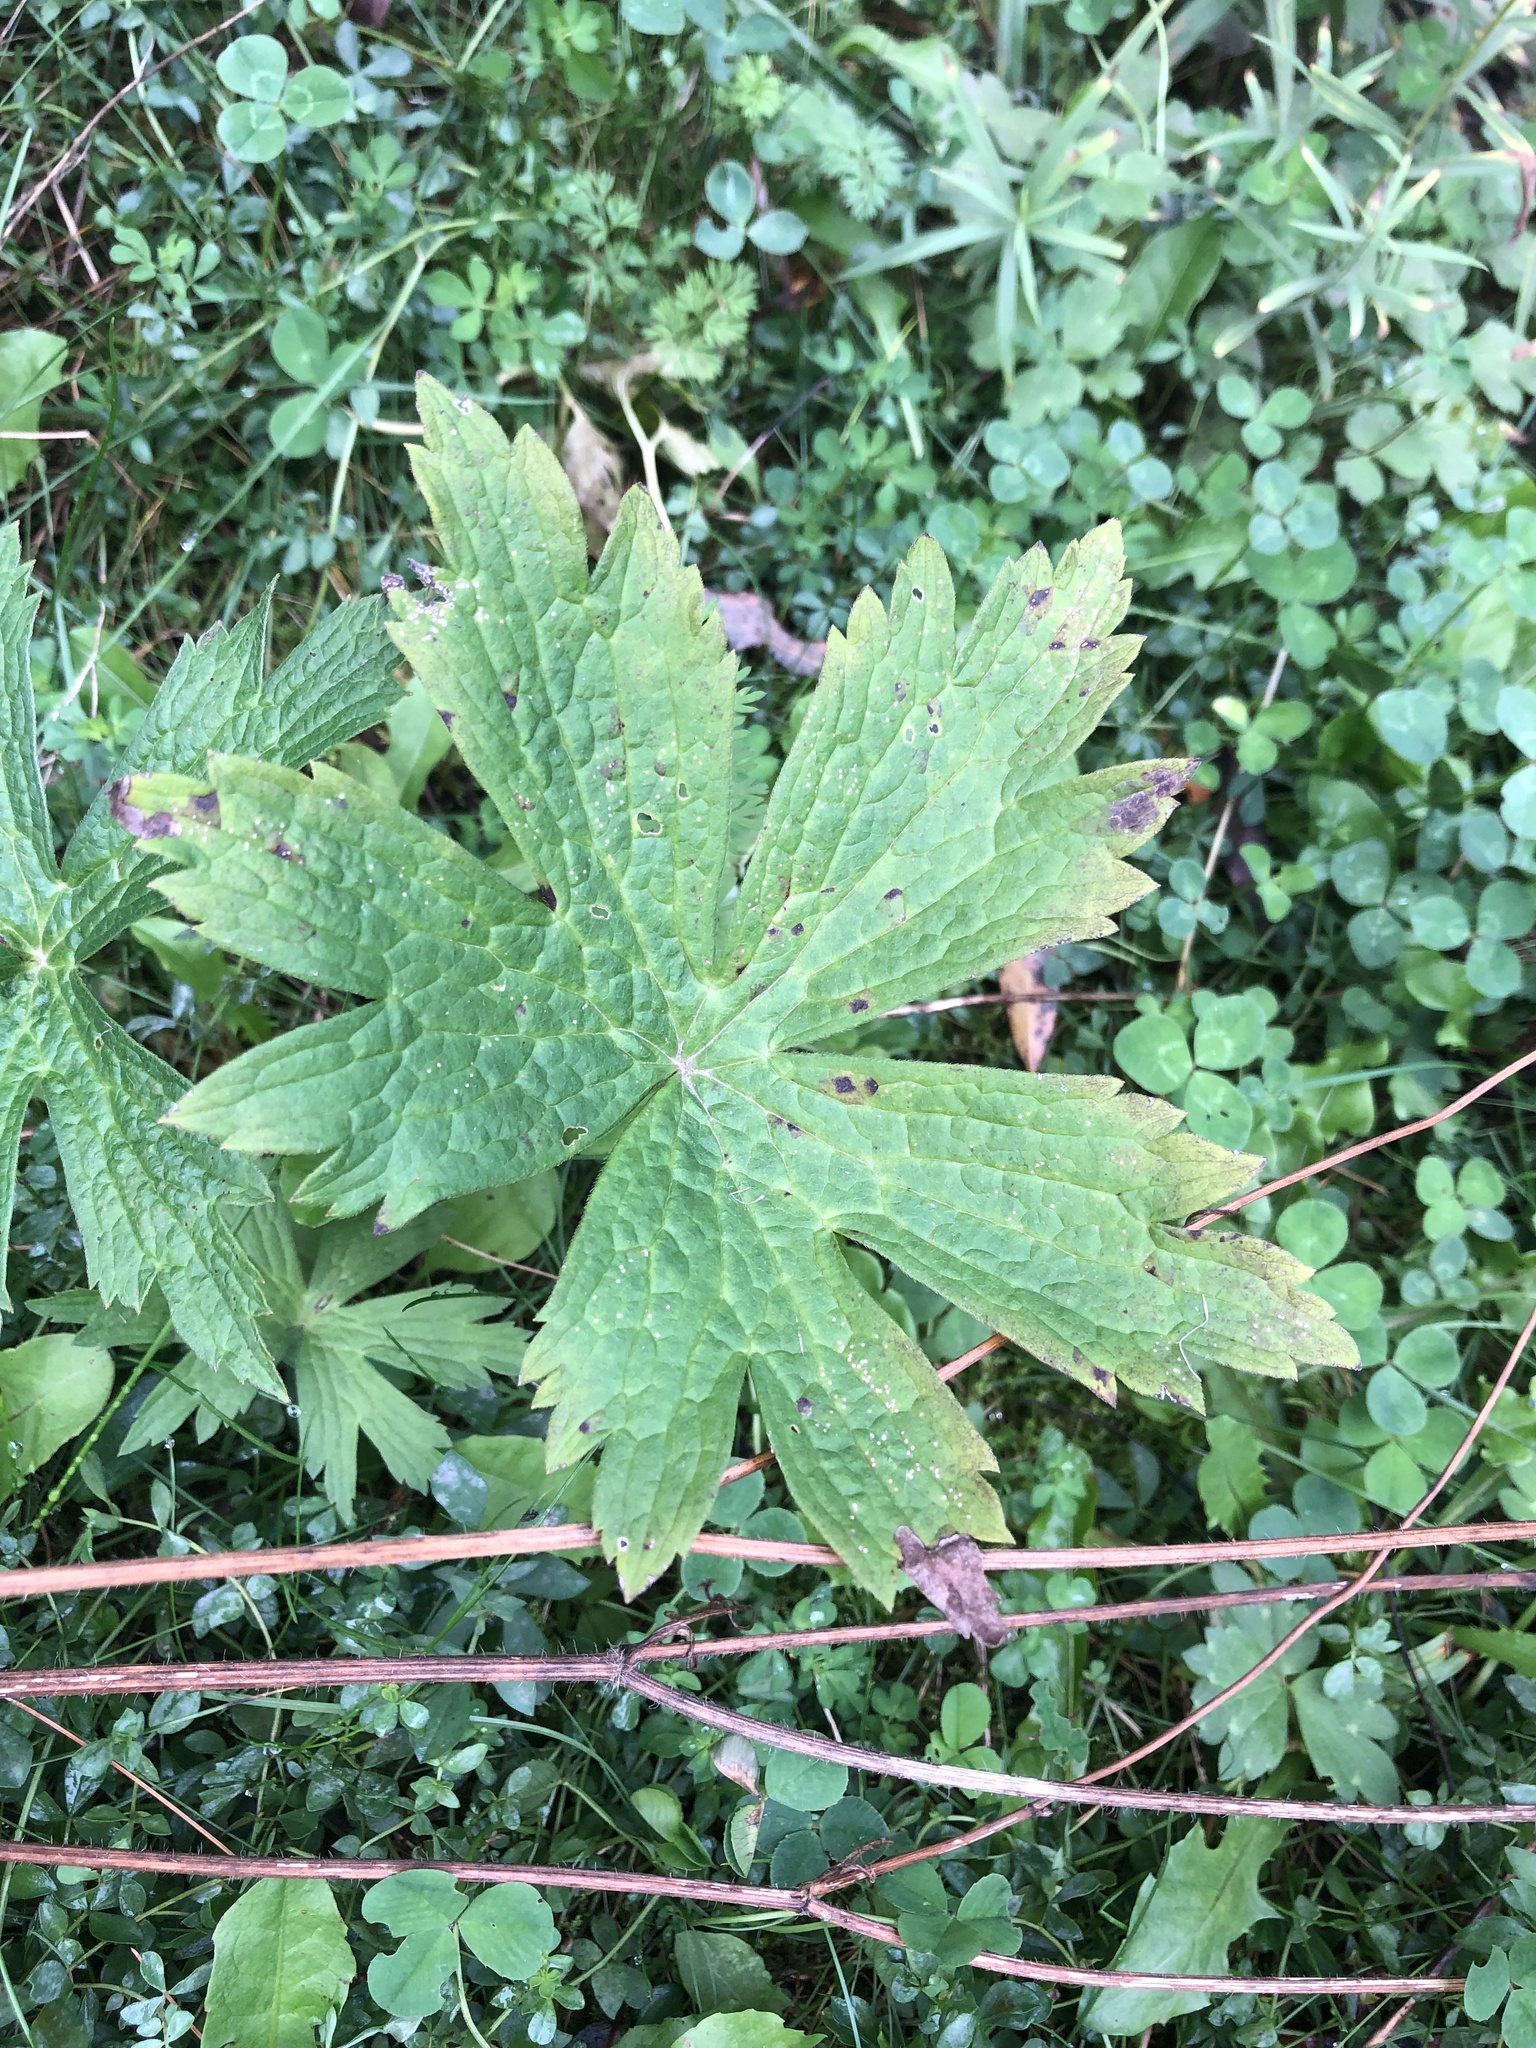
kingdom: Plantae
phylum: Tracheophyta
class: Magnoliopsida
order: Ranunculales
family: Ranunculaceae
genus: Anemonastrum
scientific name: Anemonastrum canadense
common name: Canada anemone
